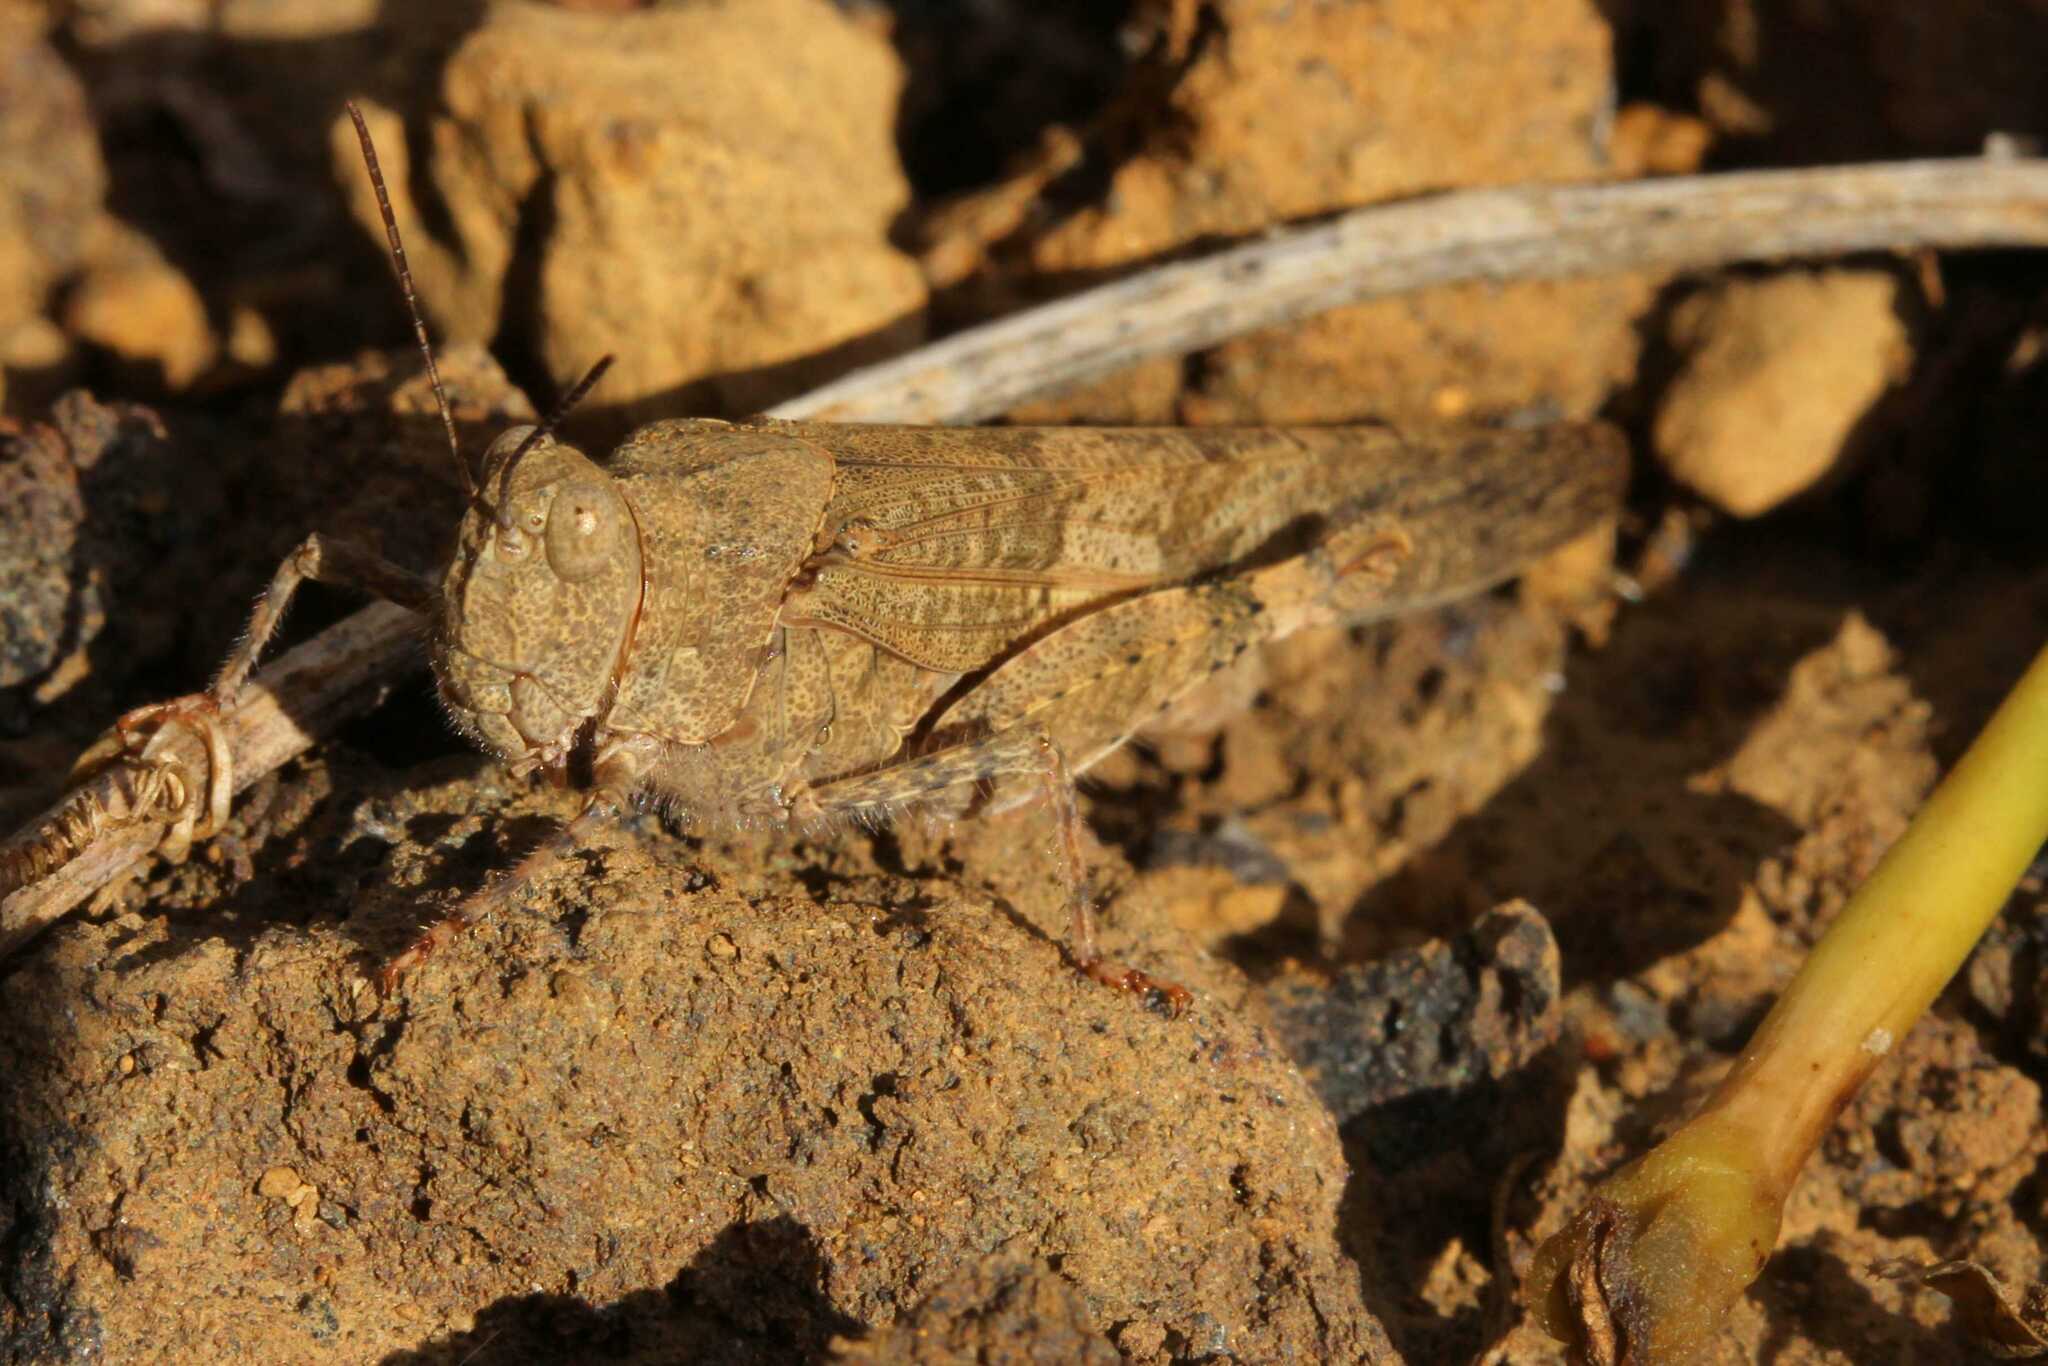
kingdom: Animalia
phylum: Arthropoda
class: Insecta
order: Orthoptera
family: Acrididae
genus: Trimerotropis
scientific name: Trimerotropis
